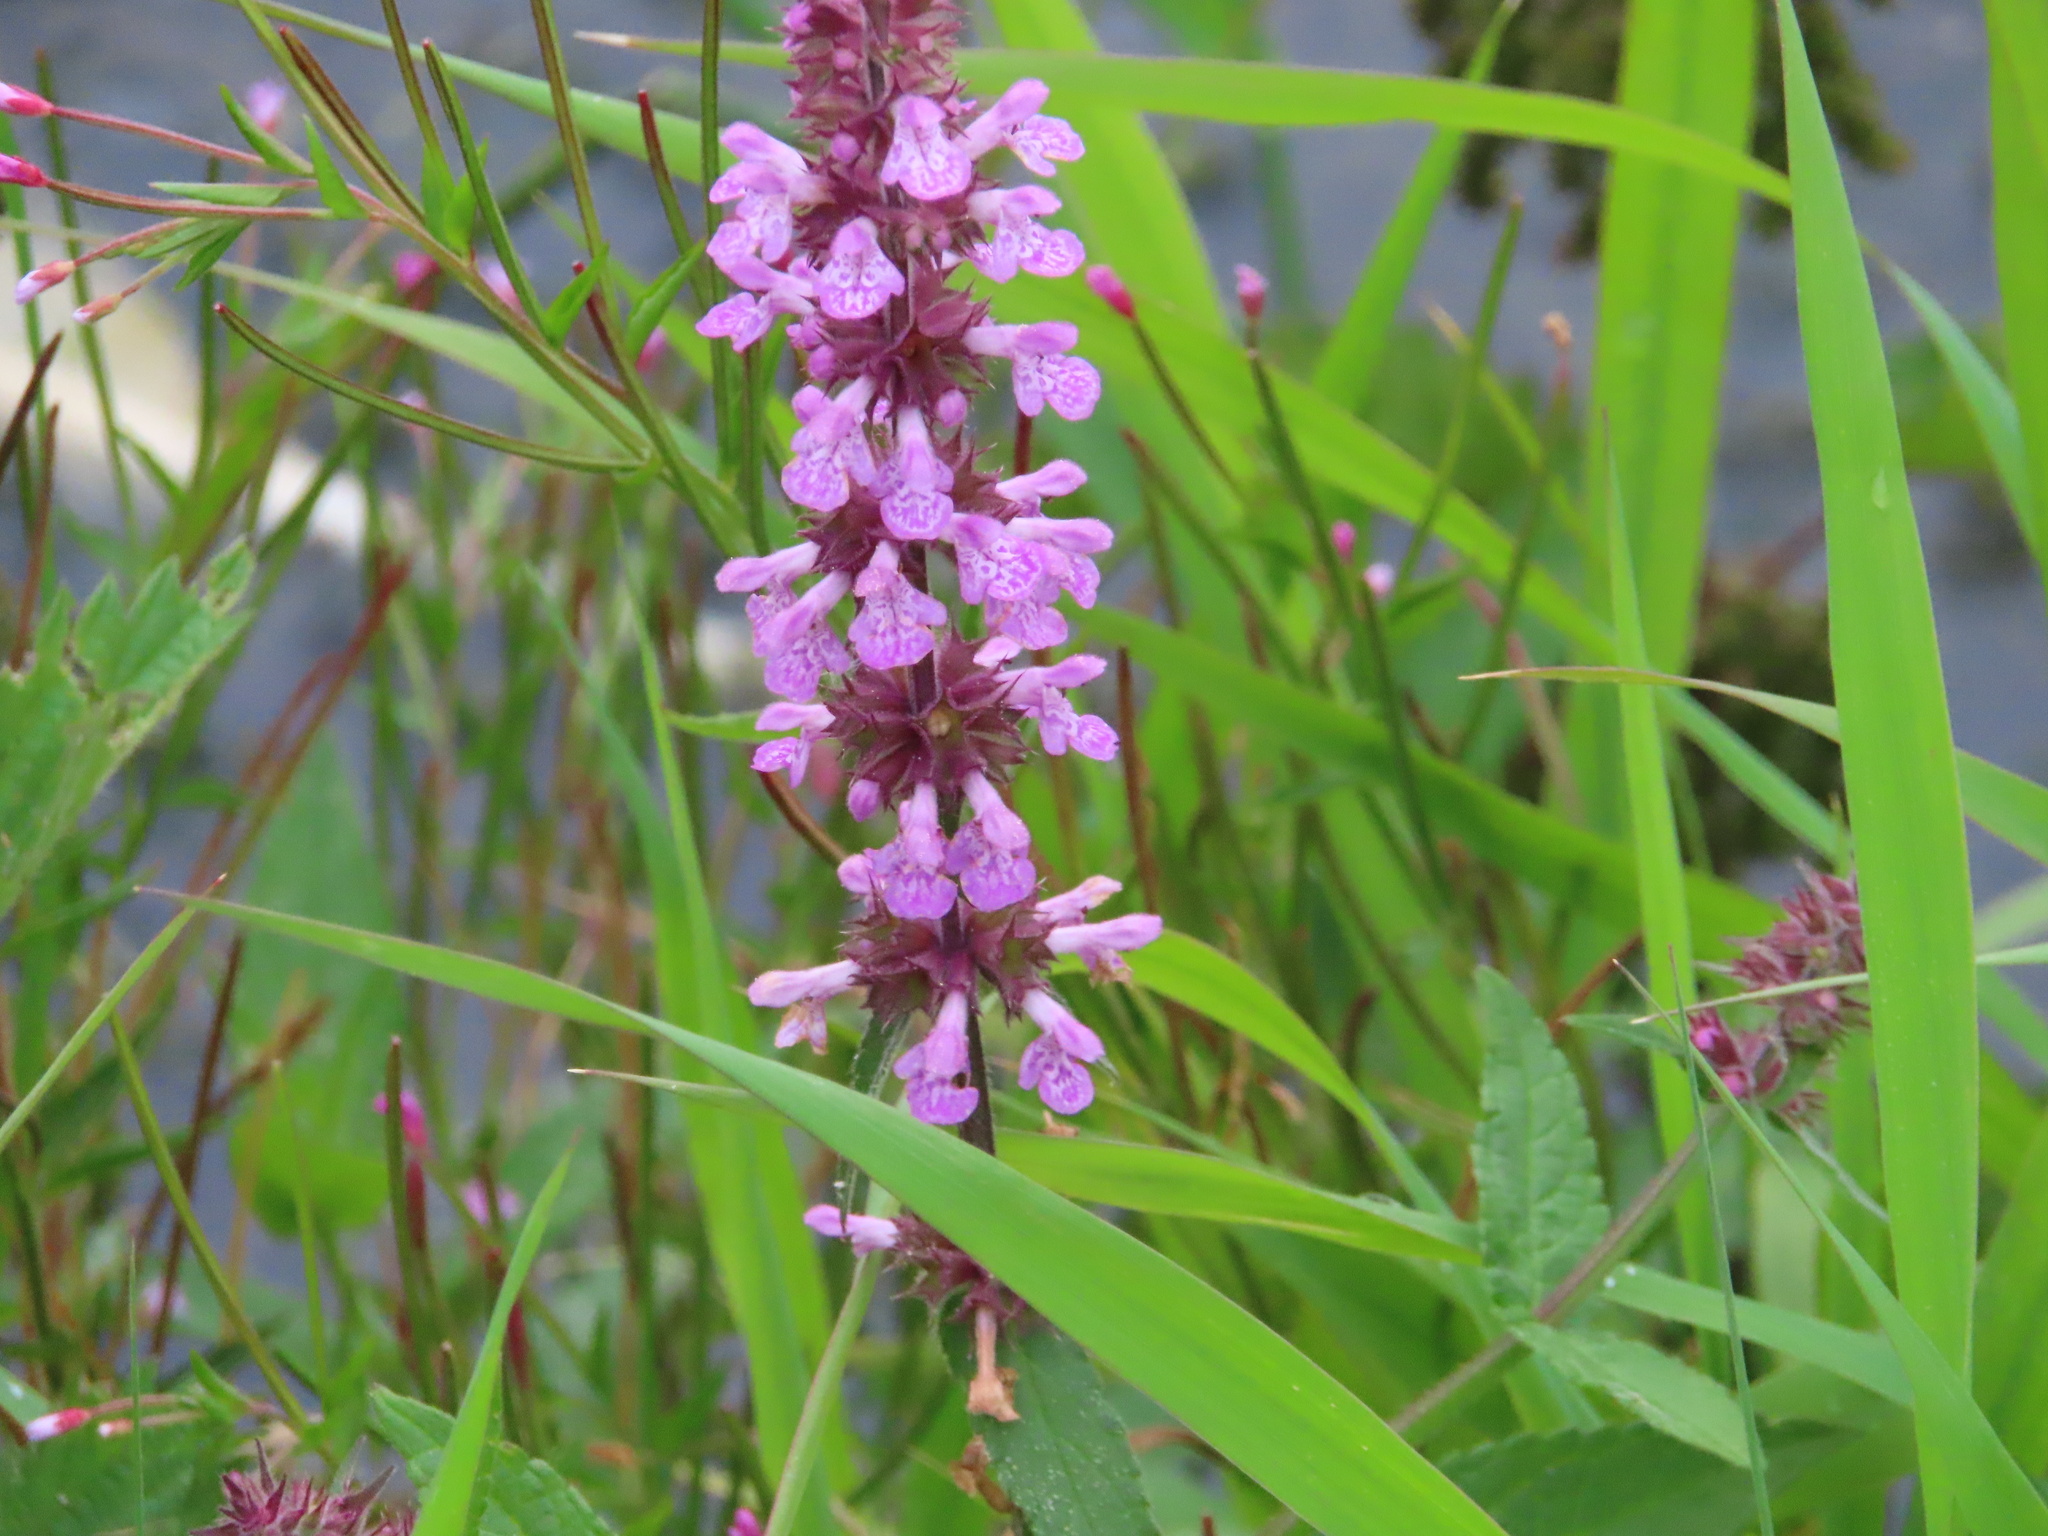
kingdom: Plantae
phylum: Tracheophyta
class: Magnoliopsida
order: Lamiales
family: Lamiaceae
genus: Stachys
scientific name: Stachys palustris
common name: Marsh woundwort
